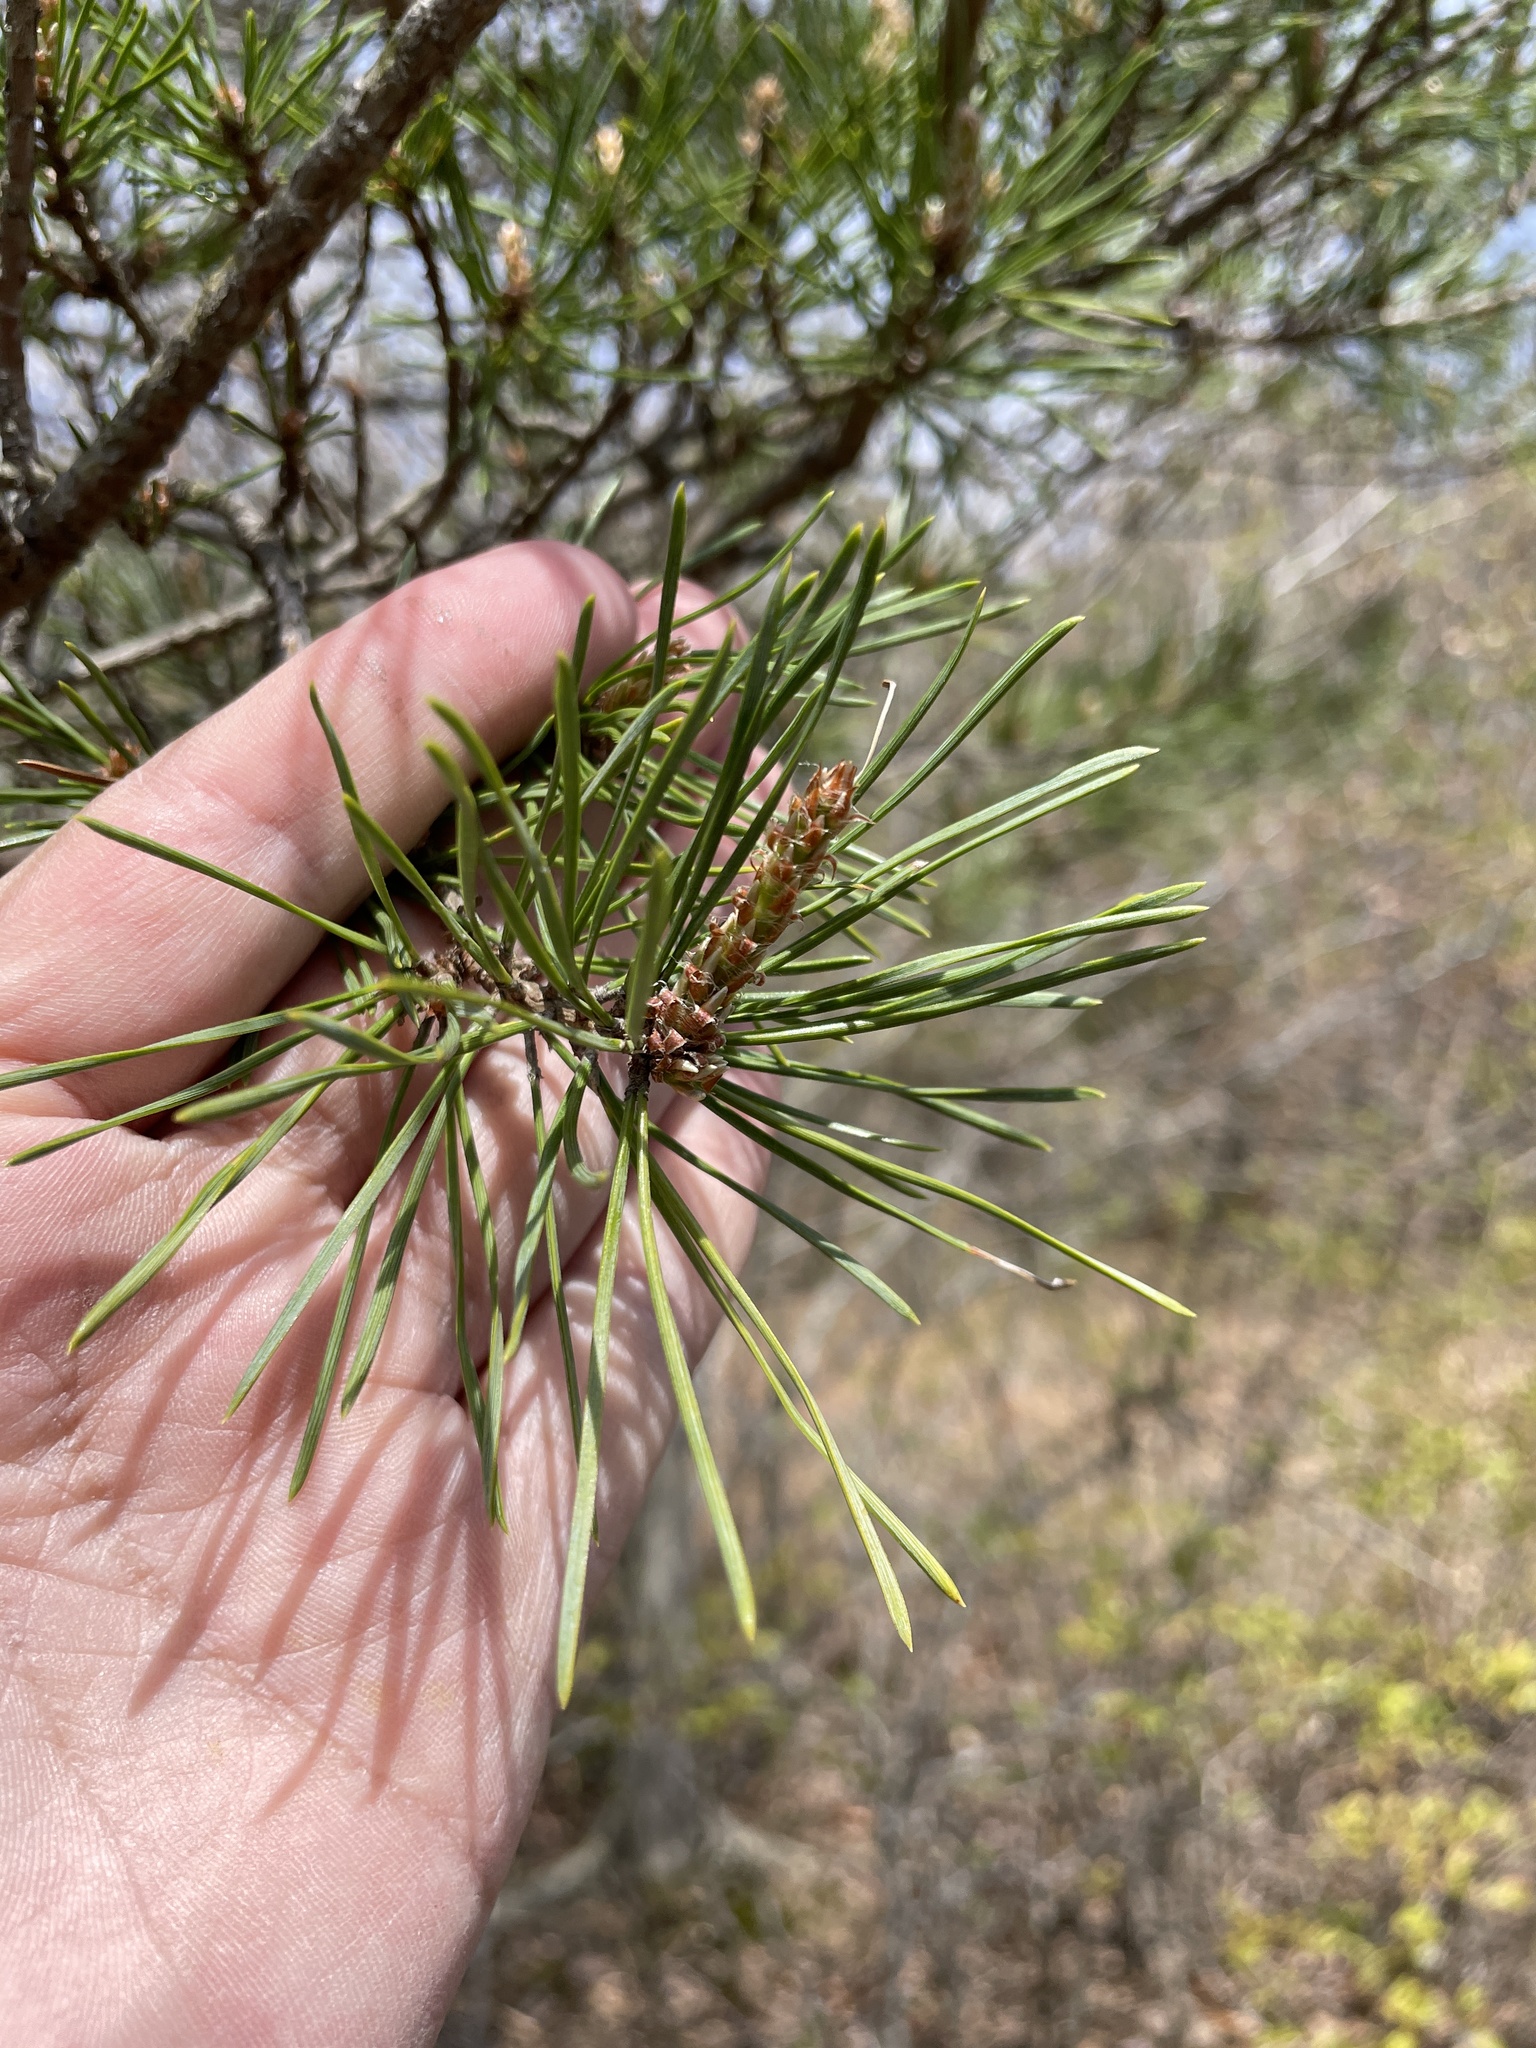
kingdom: Plantae
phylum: Tracheophyta
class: Pinopsida
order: Pinales
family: Pinaceae
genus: Pinus
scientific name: Pinus virginiana
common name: Scrub pine
